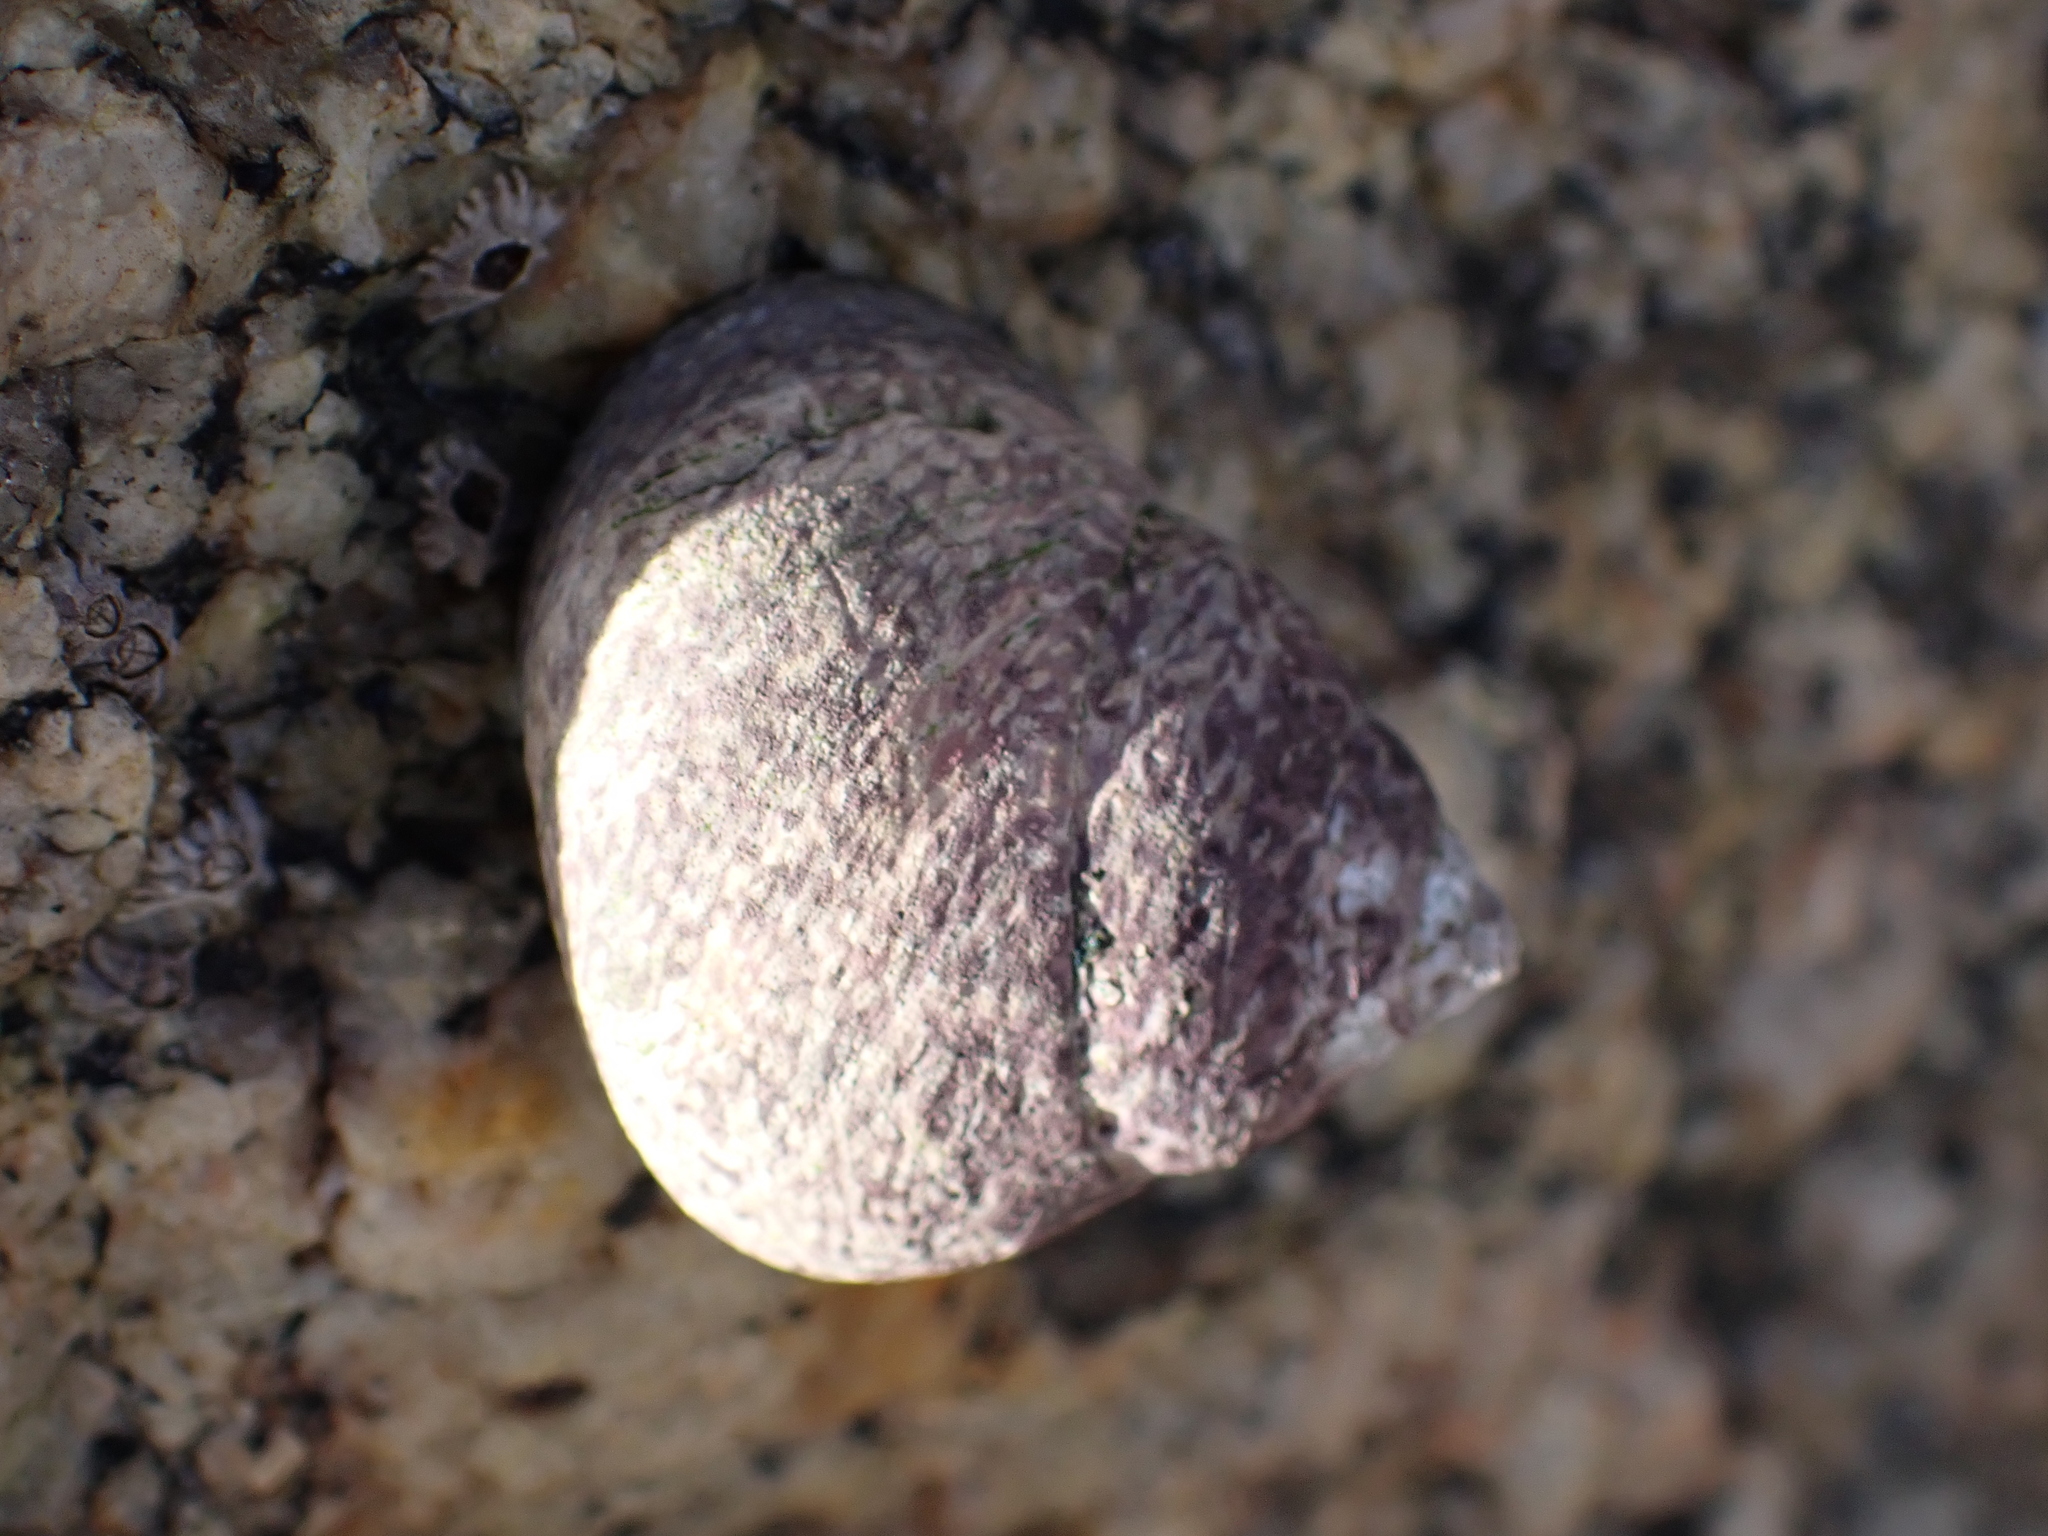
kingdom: Animalia
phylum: Mollusca
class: Gastropoda
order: Trochida
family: Trochidae
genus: Phorcus
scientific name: Phorcus lineatus
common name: Toothed top shell
